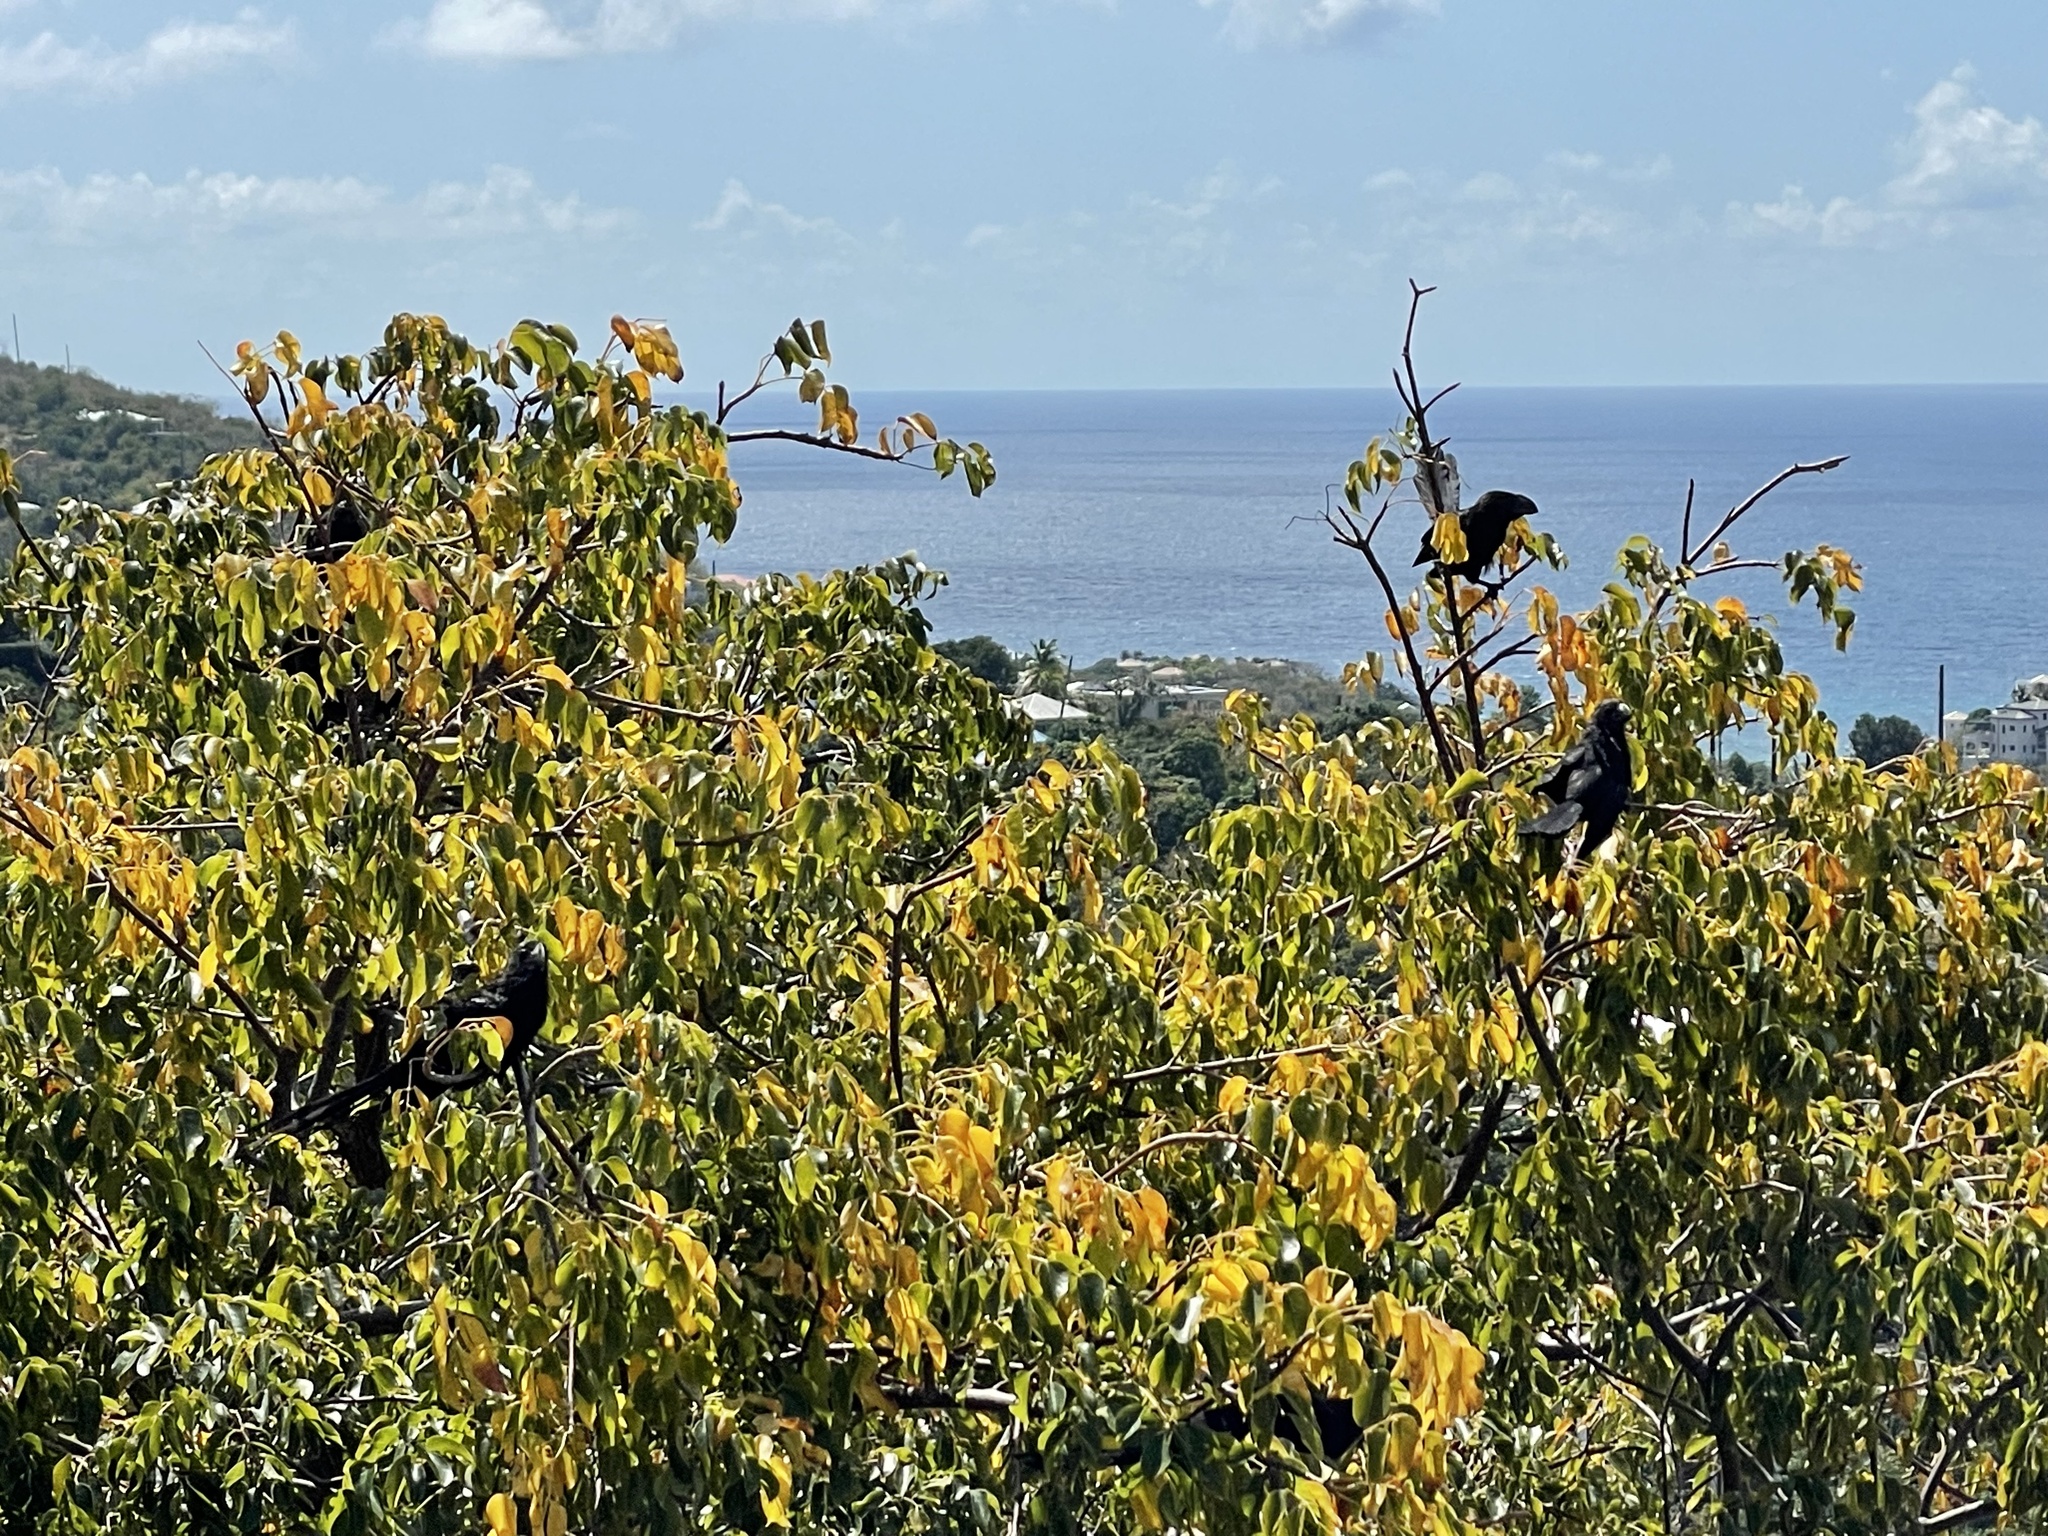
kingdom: Animalia
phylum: Chordata
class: Aves
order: Cuculiformes
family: Cuculidae
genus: Crotophaga
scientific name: Crotophaga ani
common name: Smooth-billed ani
